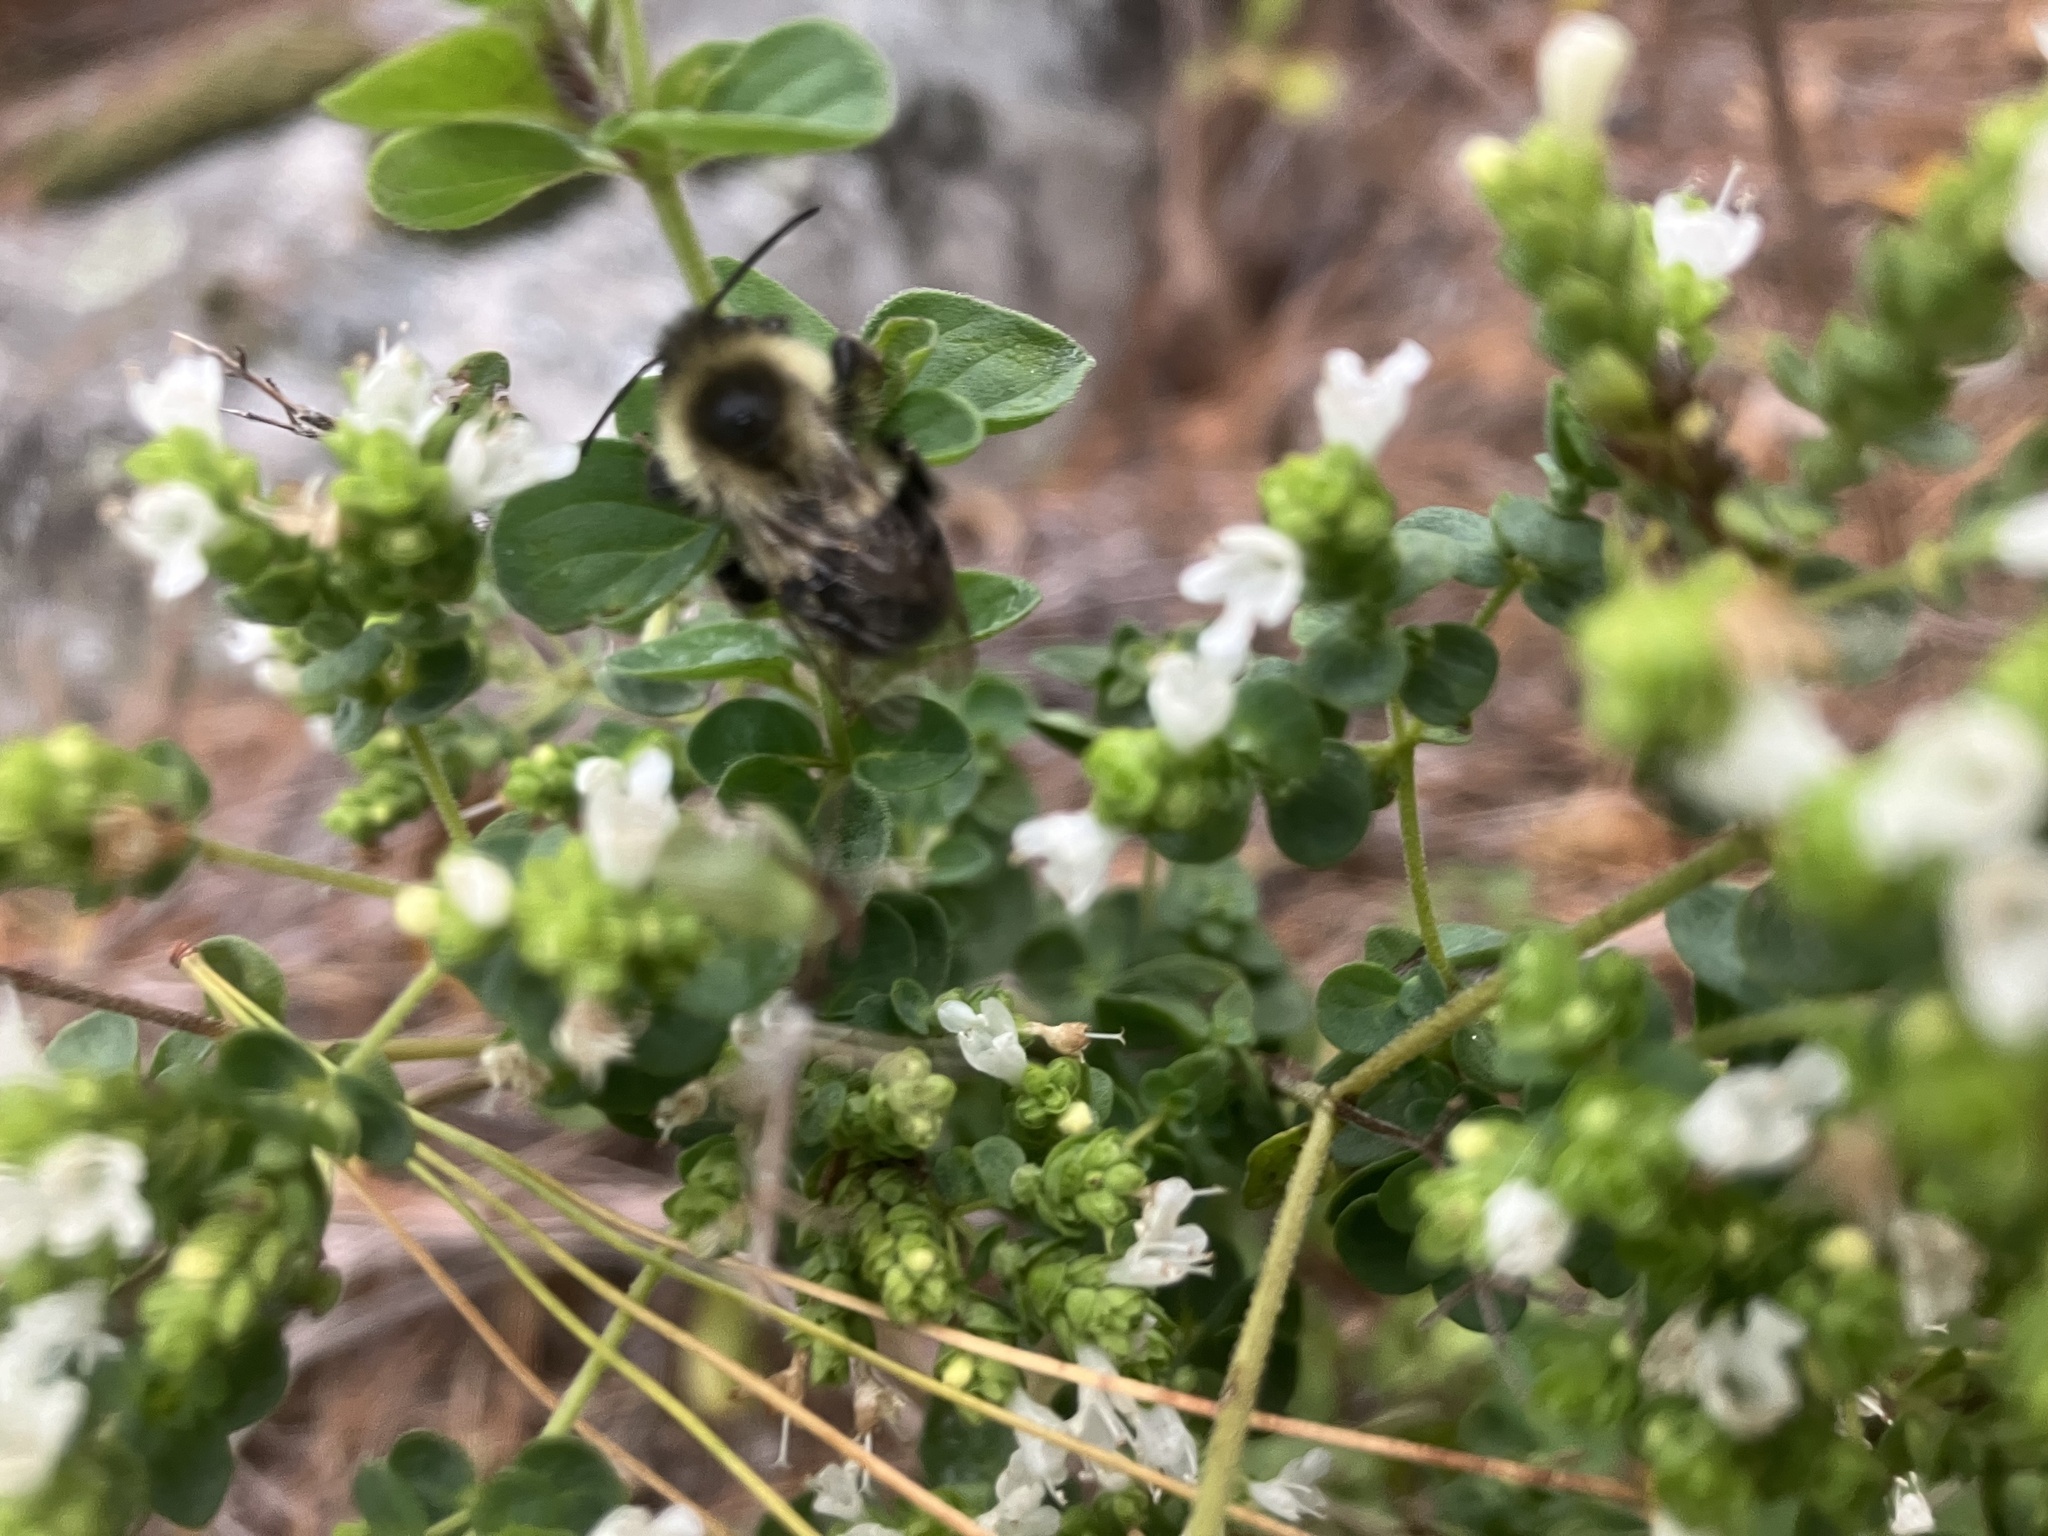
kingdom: Animalia
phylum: Arthropoda
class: Insecta
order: Hymenoptera
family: Apidae
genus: Bombus
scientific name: Bombus impatiens
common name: Common eastern bumble bee
